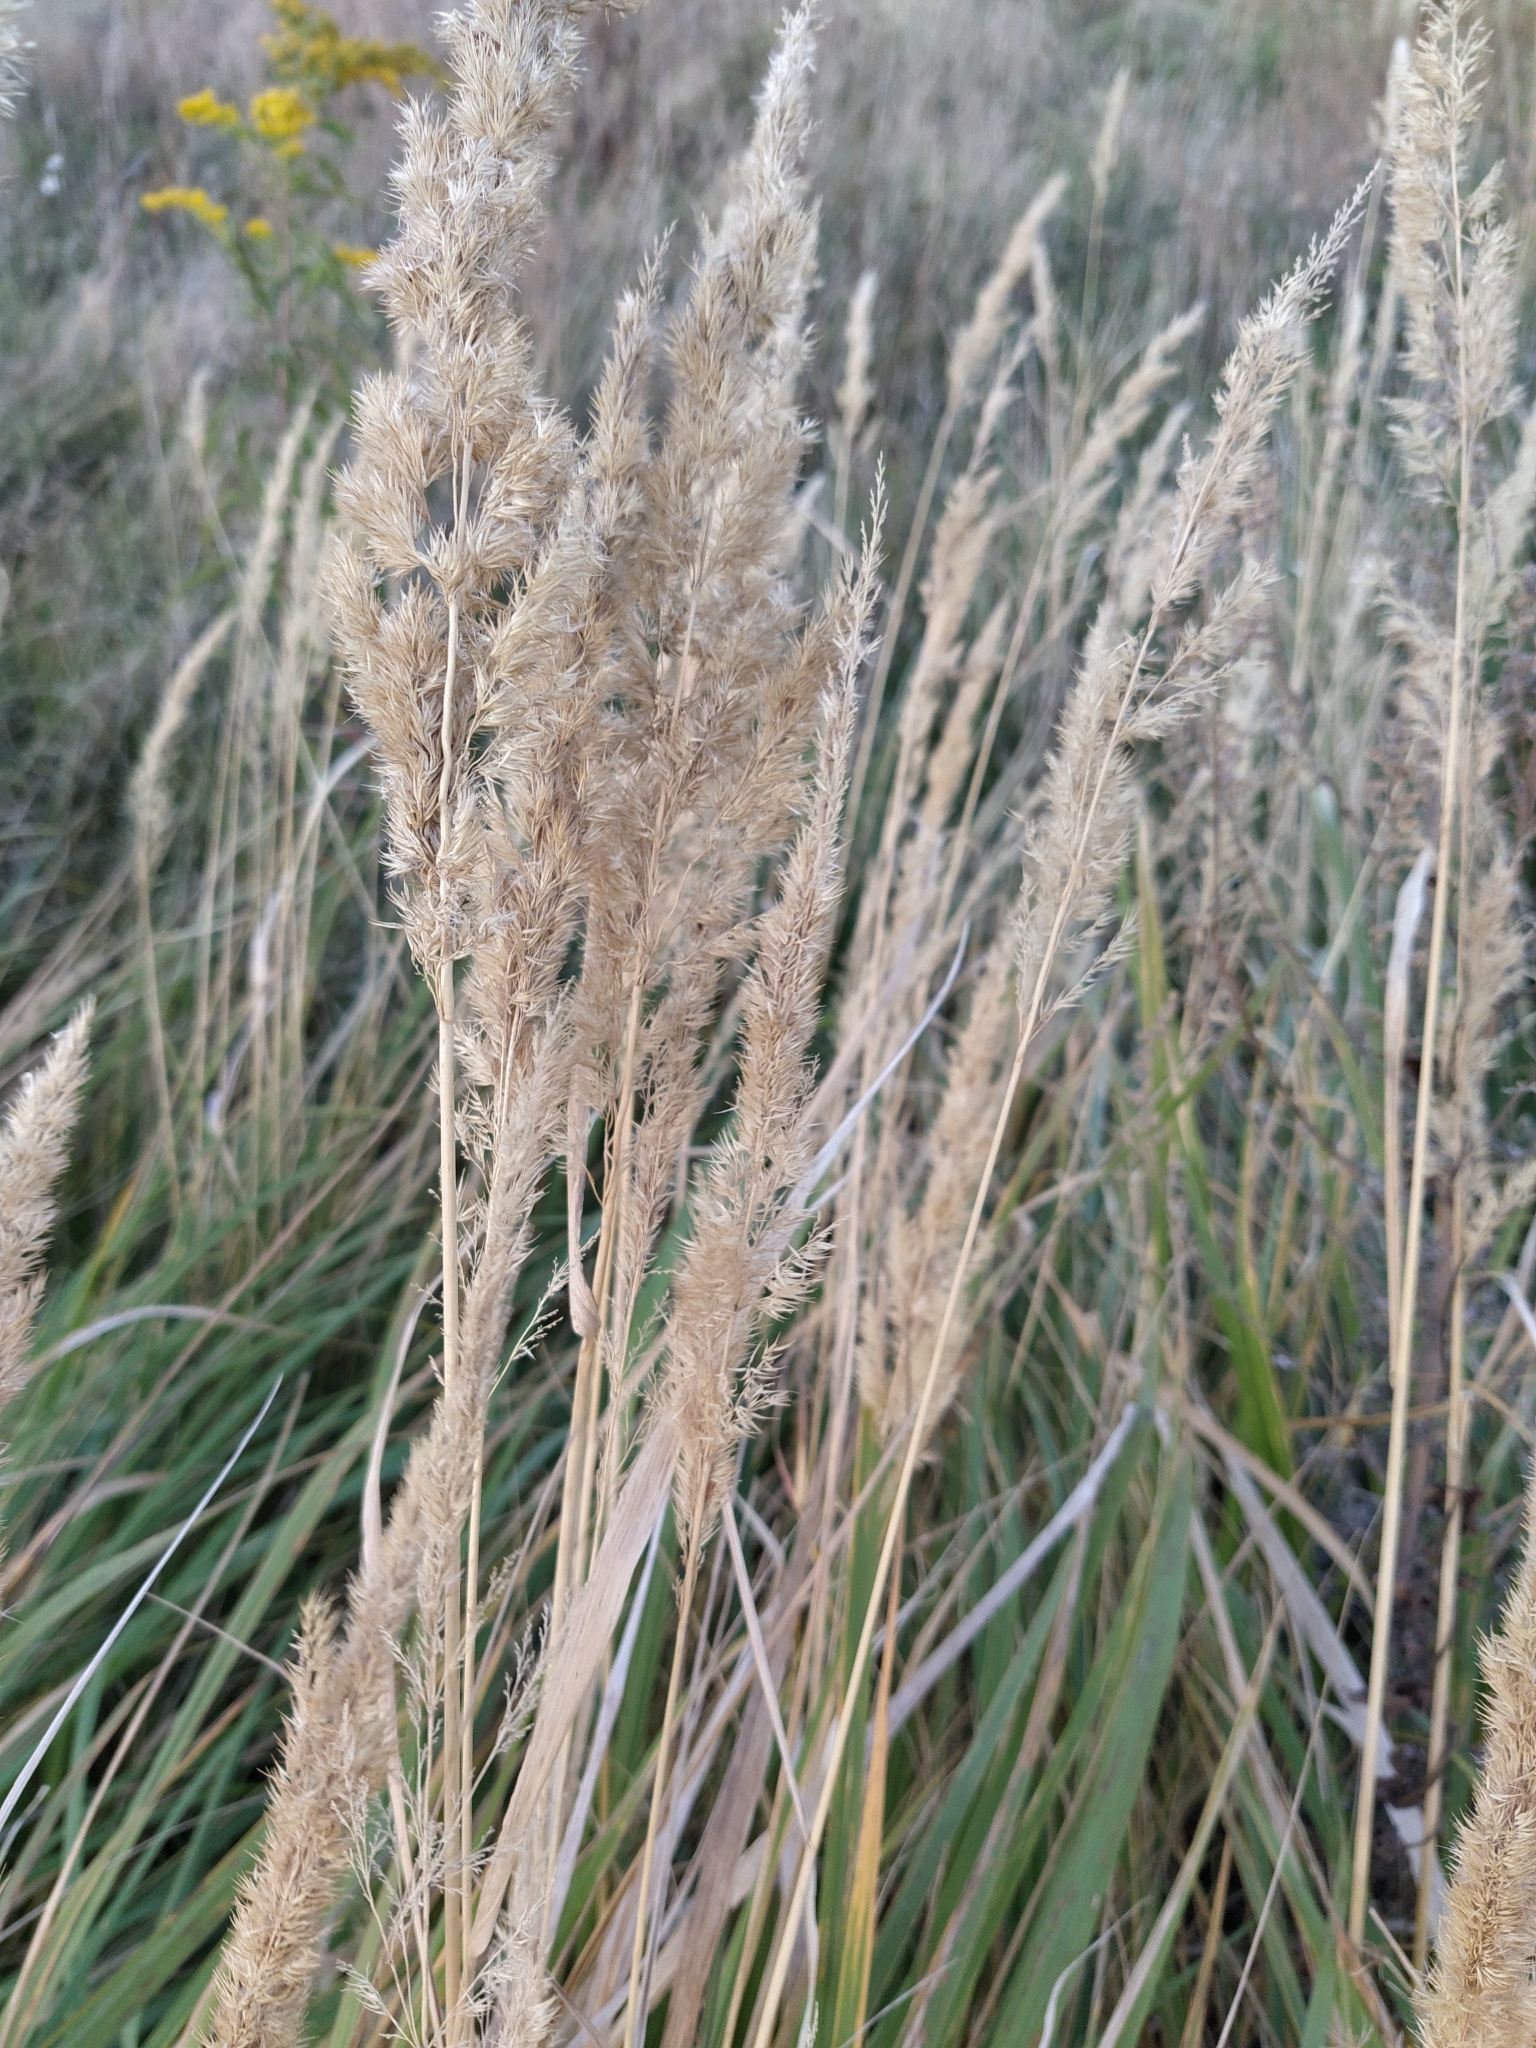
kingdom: Plantae
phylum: Tracheophyta
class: Liliopsida
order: Poales
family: Poaceae
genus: Calamagrostis
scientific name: Calamagrostis epigejos
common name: Wood small-reed
